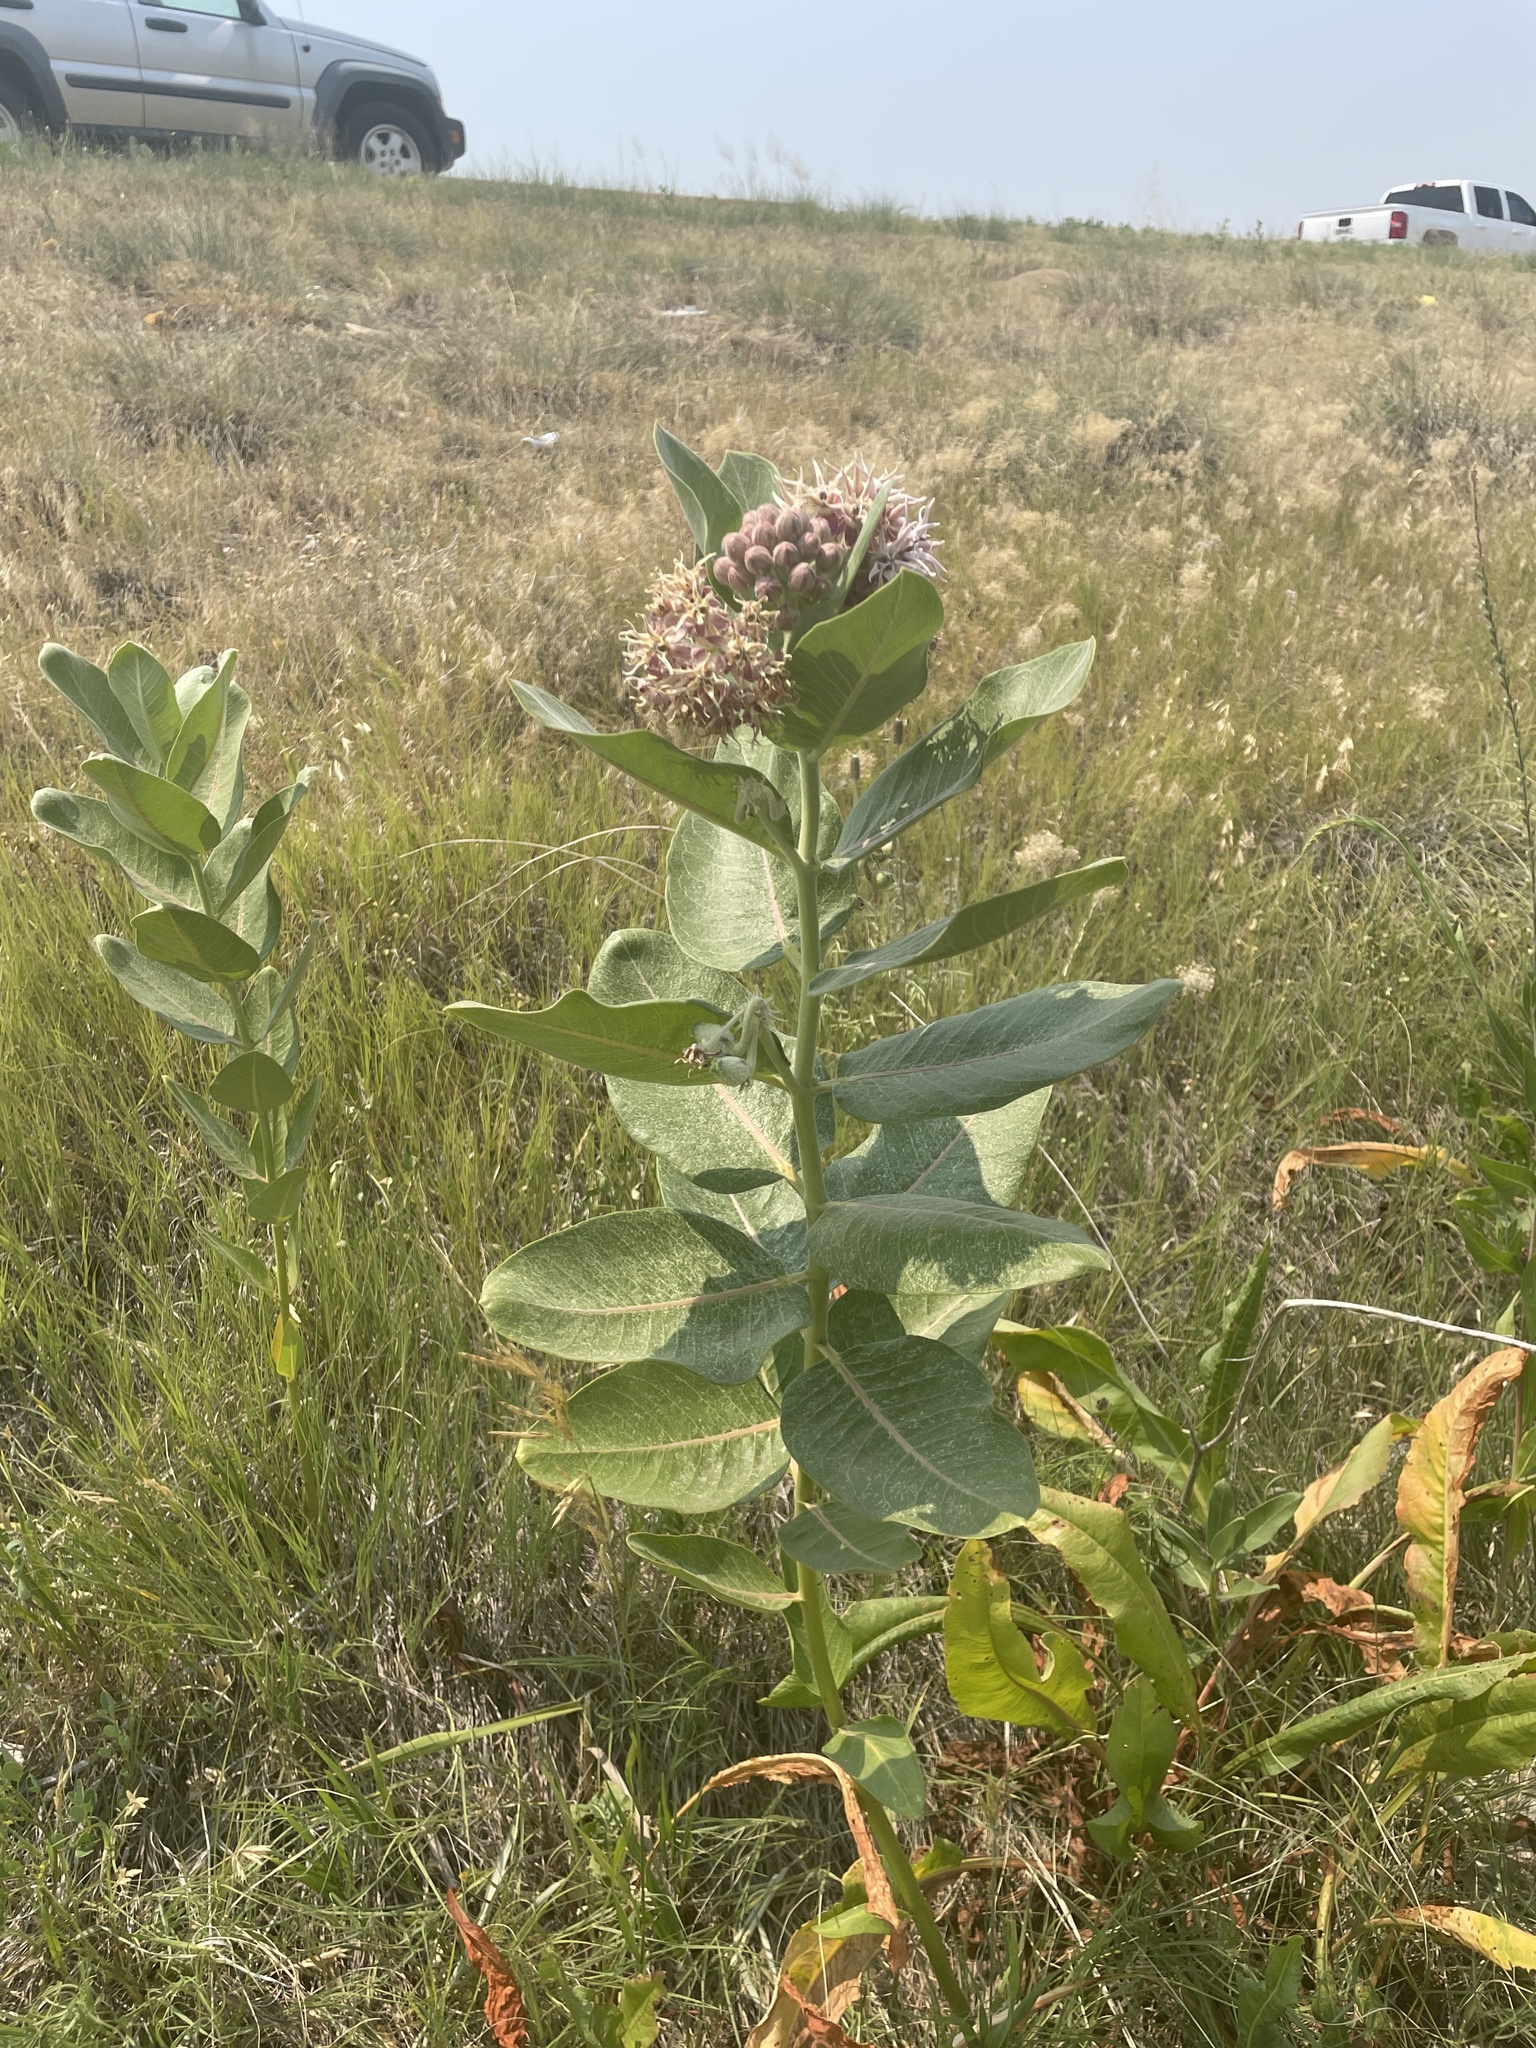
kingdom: Plantae
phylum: Tracheophyta
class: Magnoliopsida
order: Gentianales
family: Apocynaceae
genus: Asclepias
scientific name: Asclepias speciosa
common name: Showy milkweed
